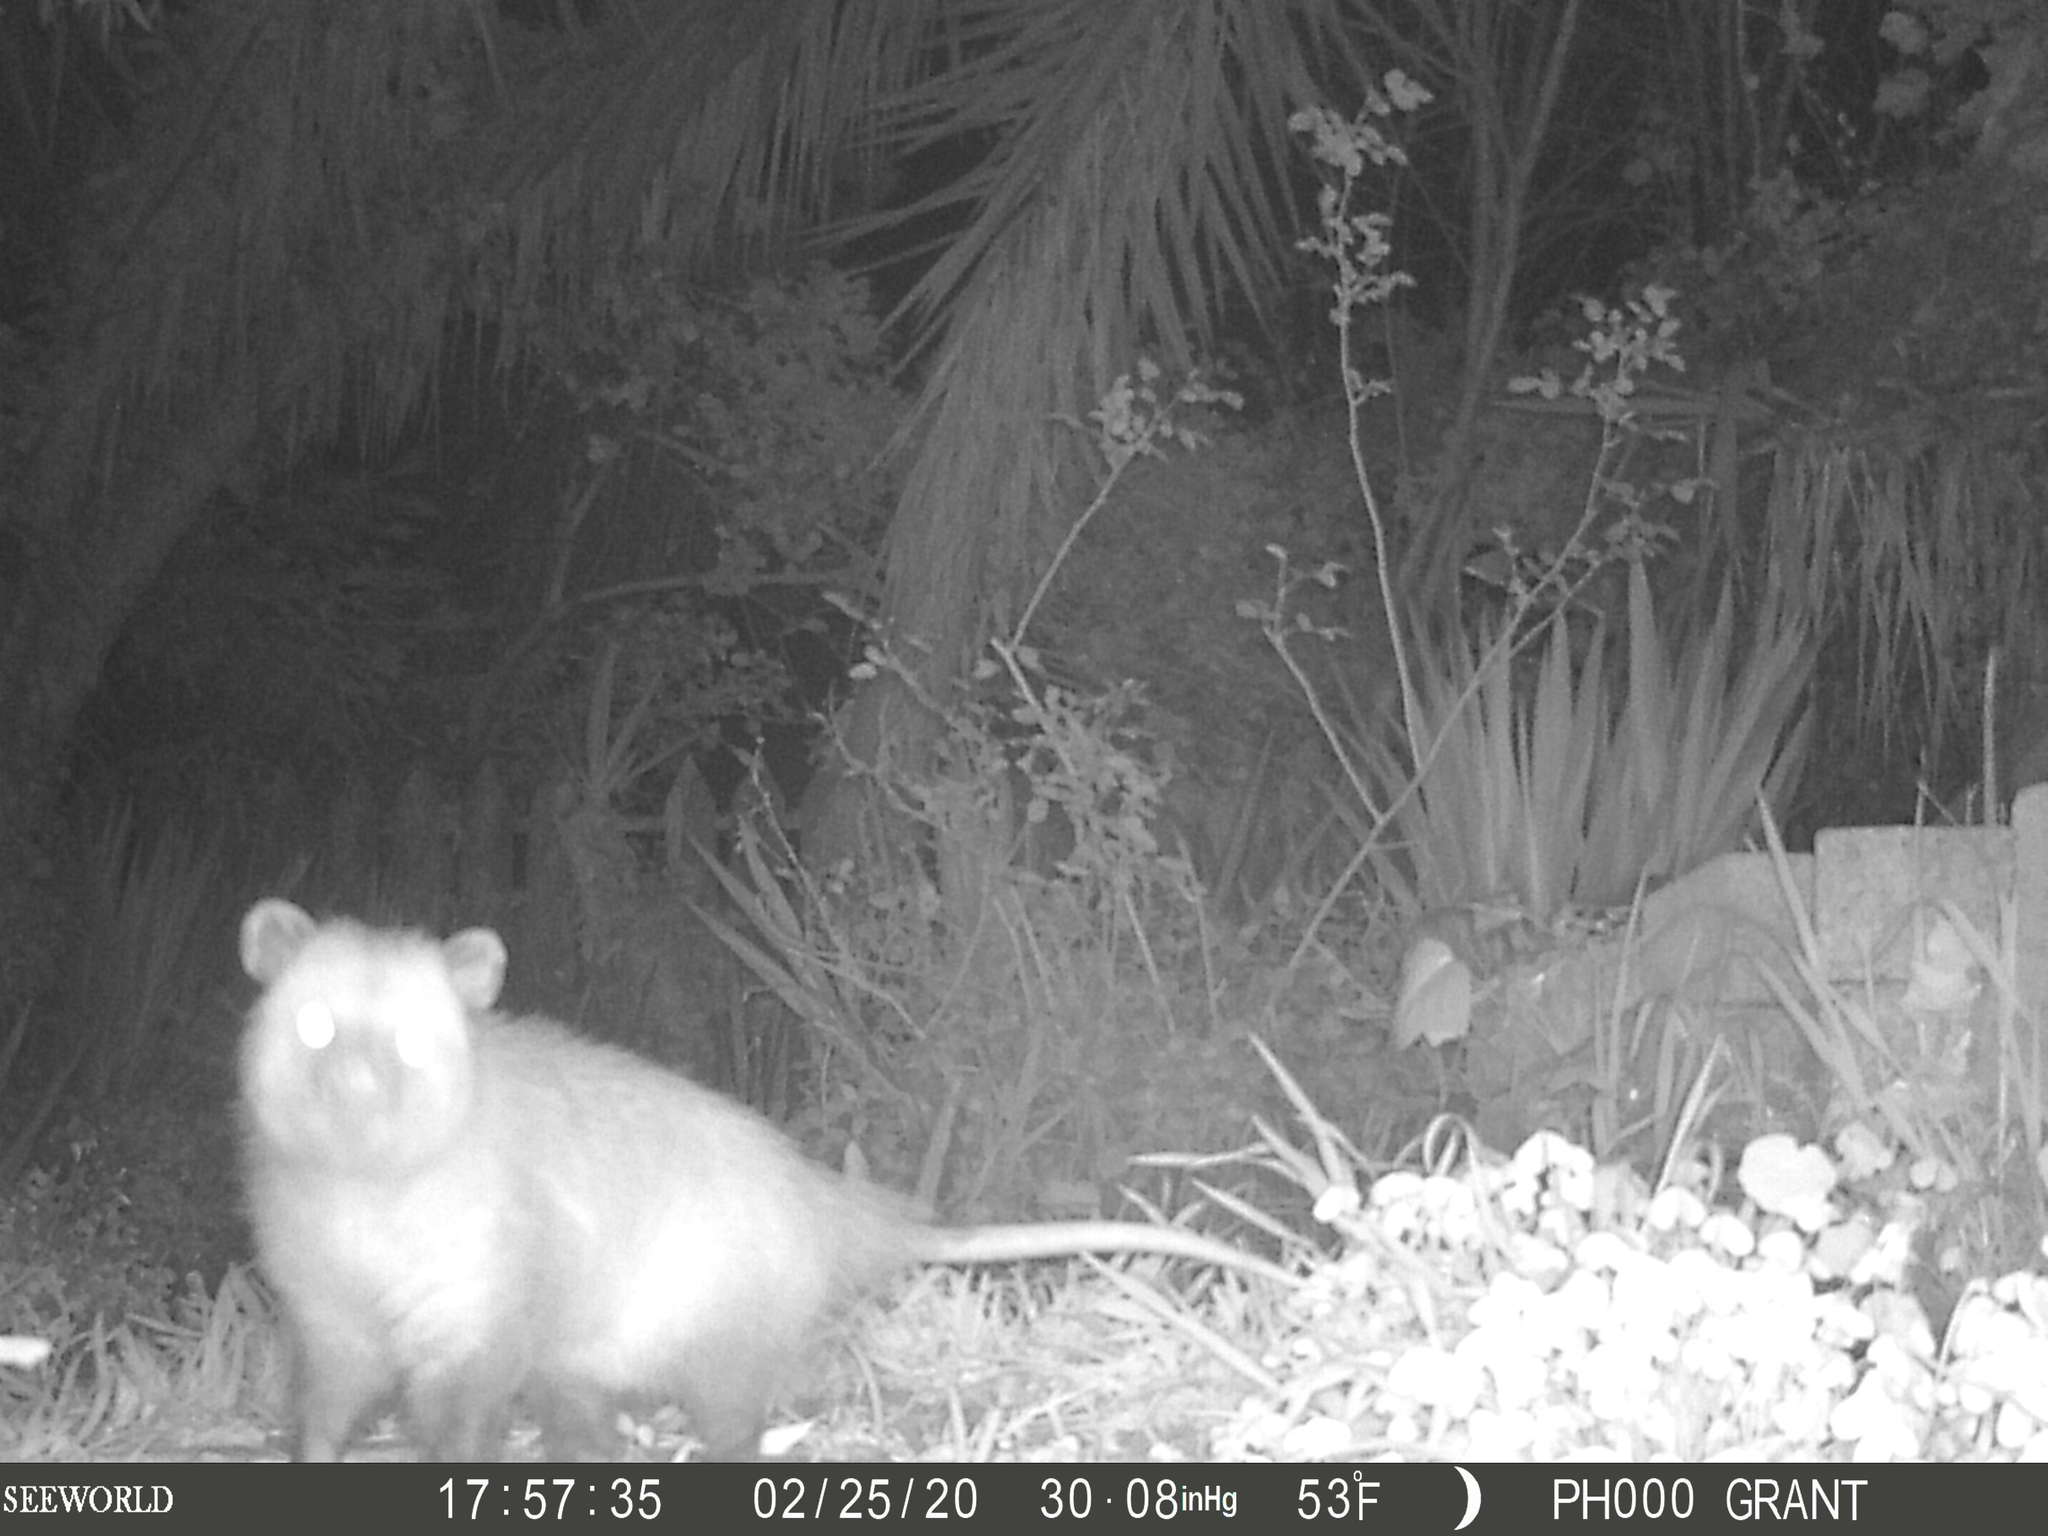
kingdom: Animalia
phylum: Chordata
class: Mammalia
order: Didelphimorphia
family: Didelphidae
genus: Didelphis
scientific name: Didelphis virginiana
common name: Virginia opossum
